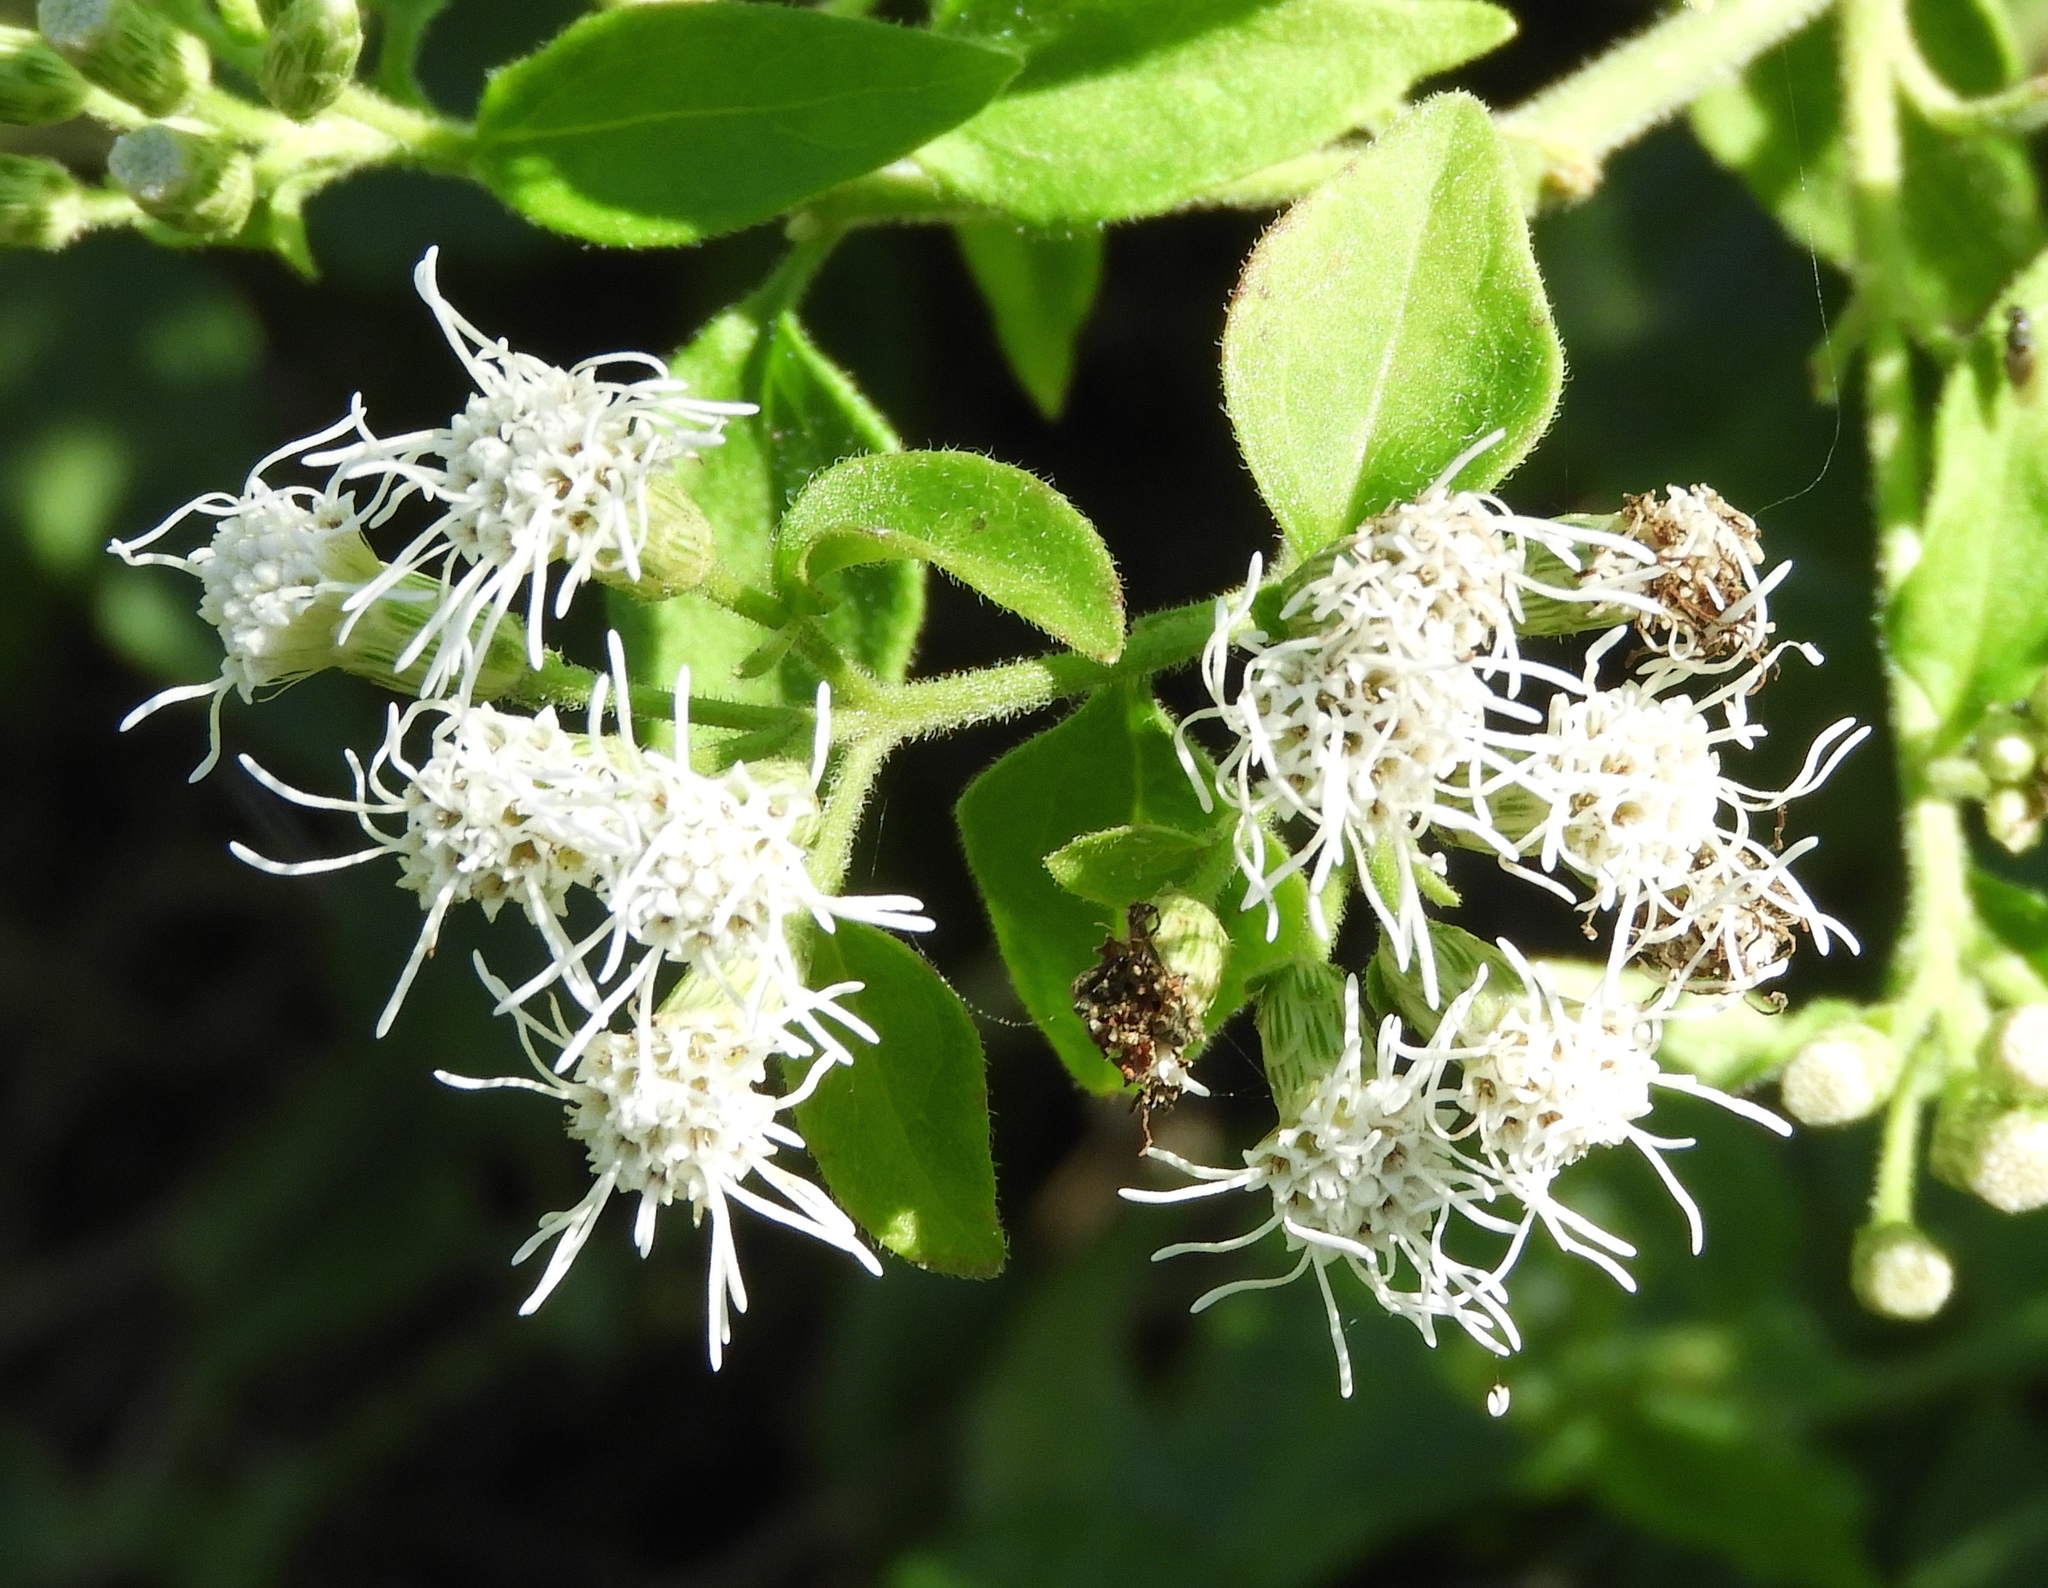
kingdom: Plantae
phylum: Tracheophyta
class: Magnoliopsida
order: Asterales
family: Asteraceae
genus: Chromolaena
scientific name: Chromolaena odorata
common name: Siamweed
